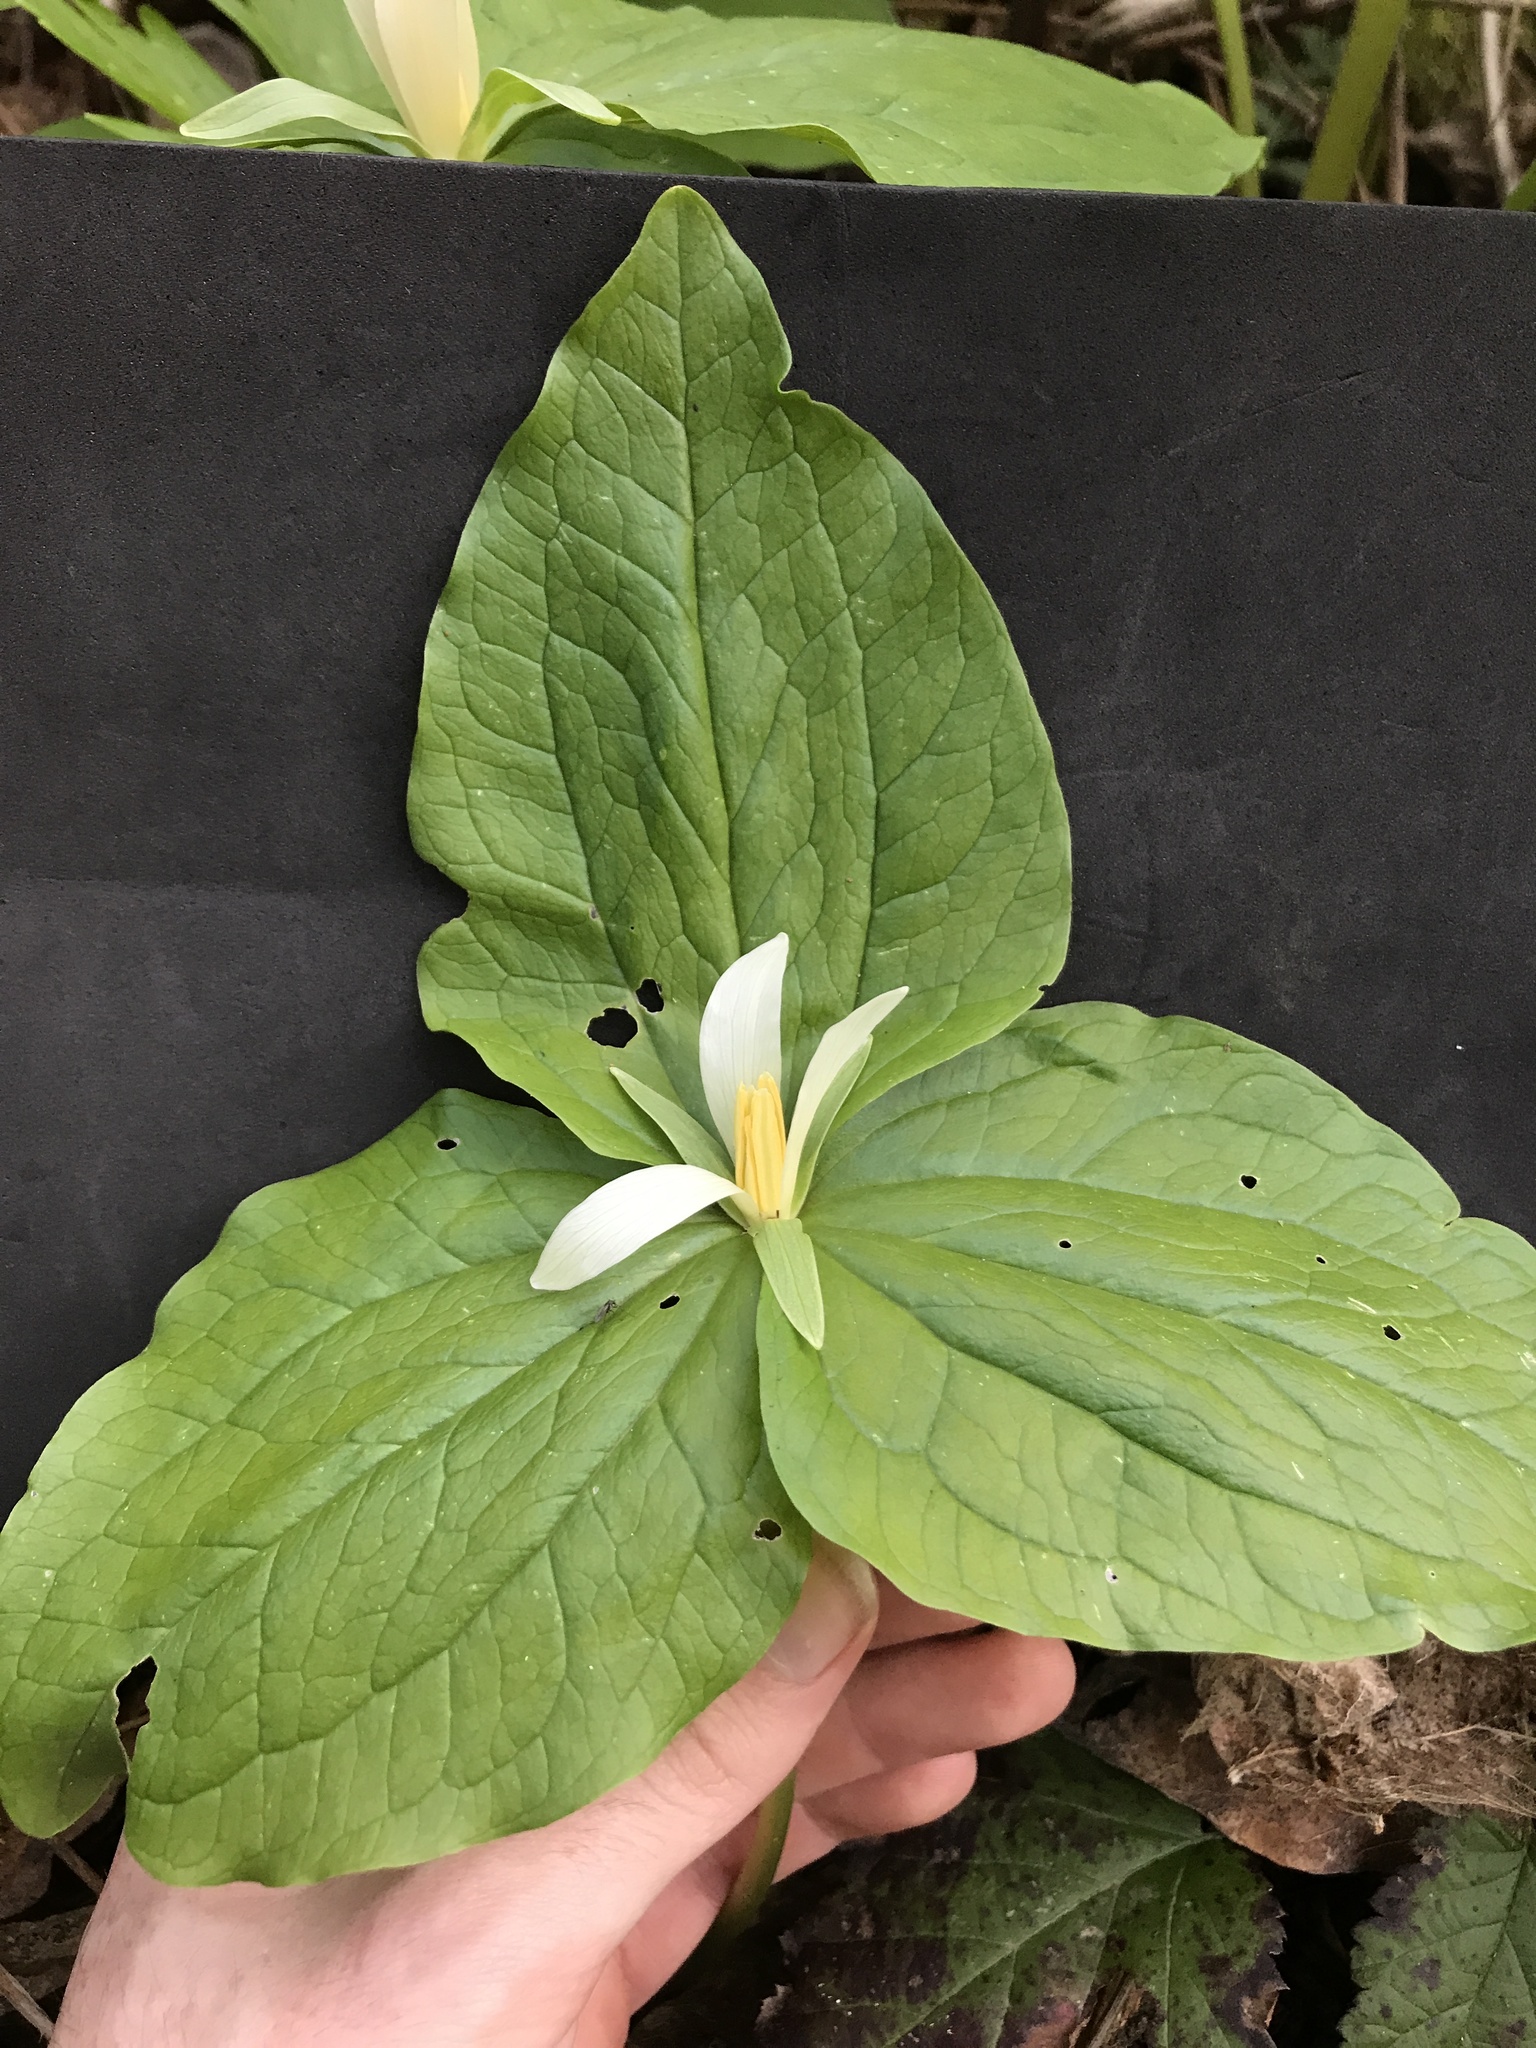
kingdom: Plantae
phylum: Tracheophyta
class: Liliopsida
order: Liliales
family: Melanthiaceae
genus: Trillium
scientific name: Trillium albidum
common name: Freeman's trillium
